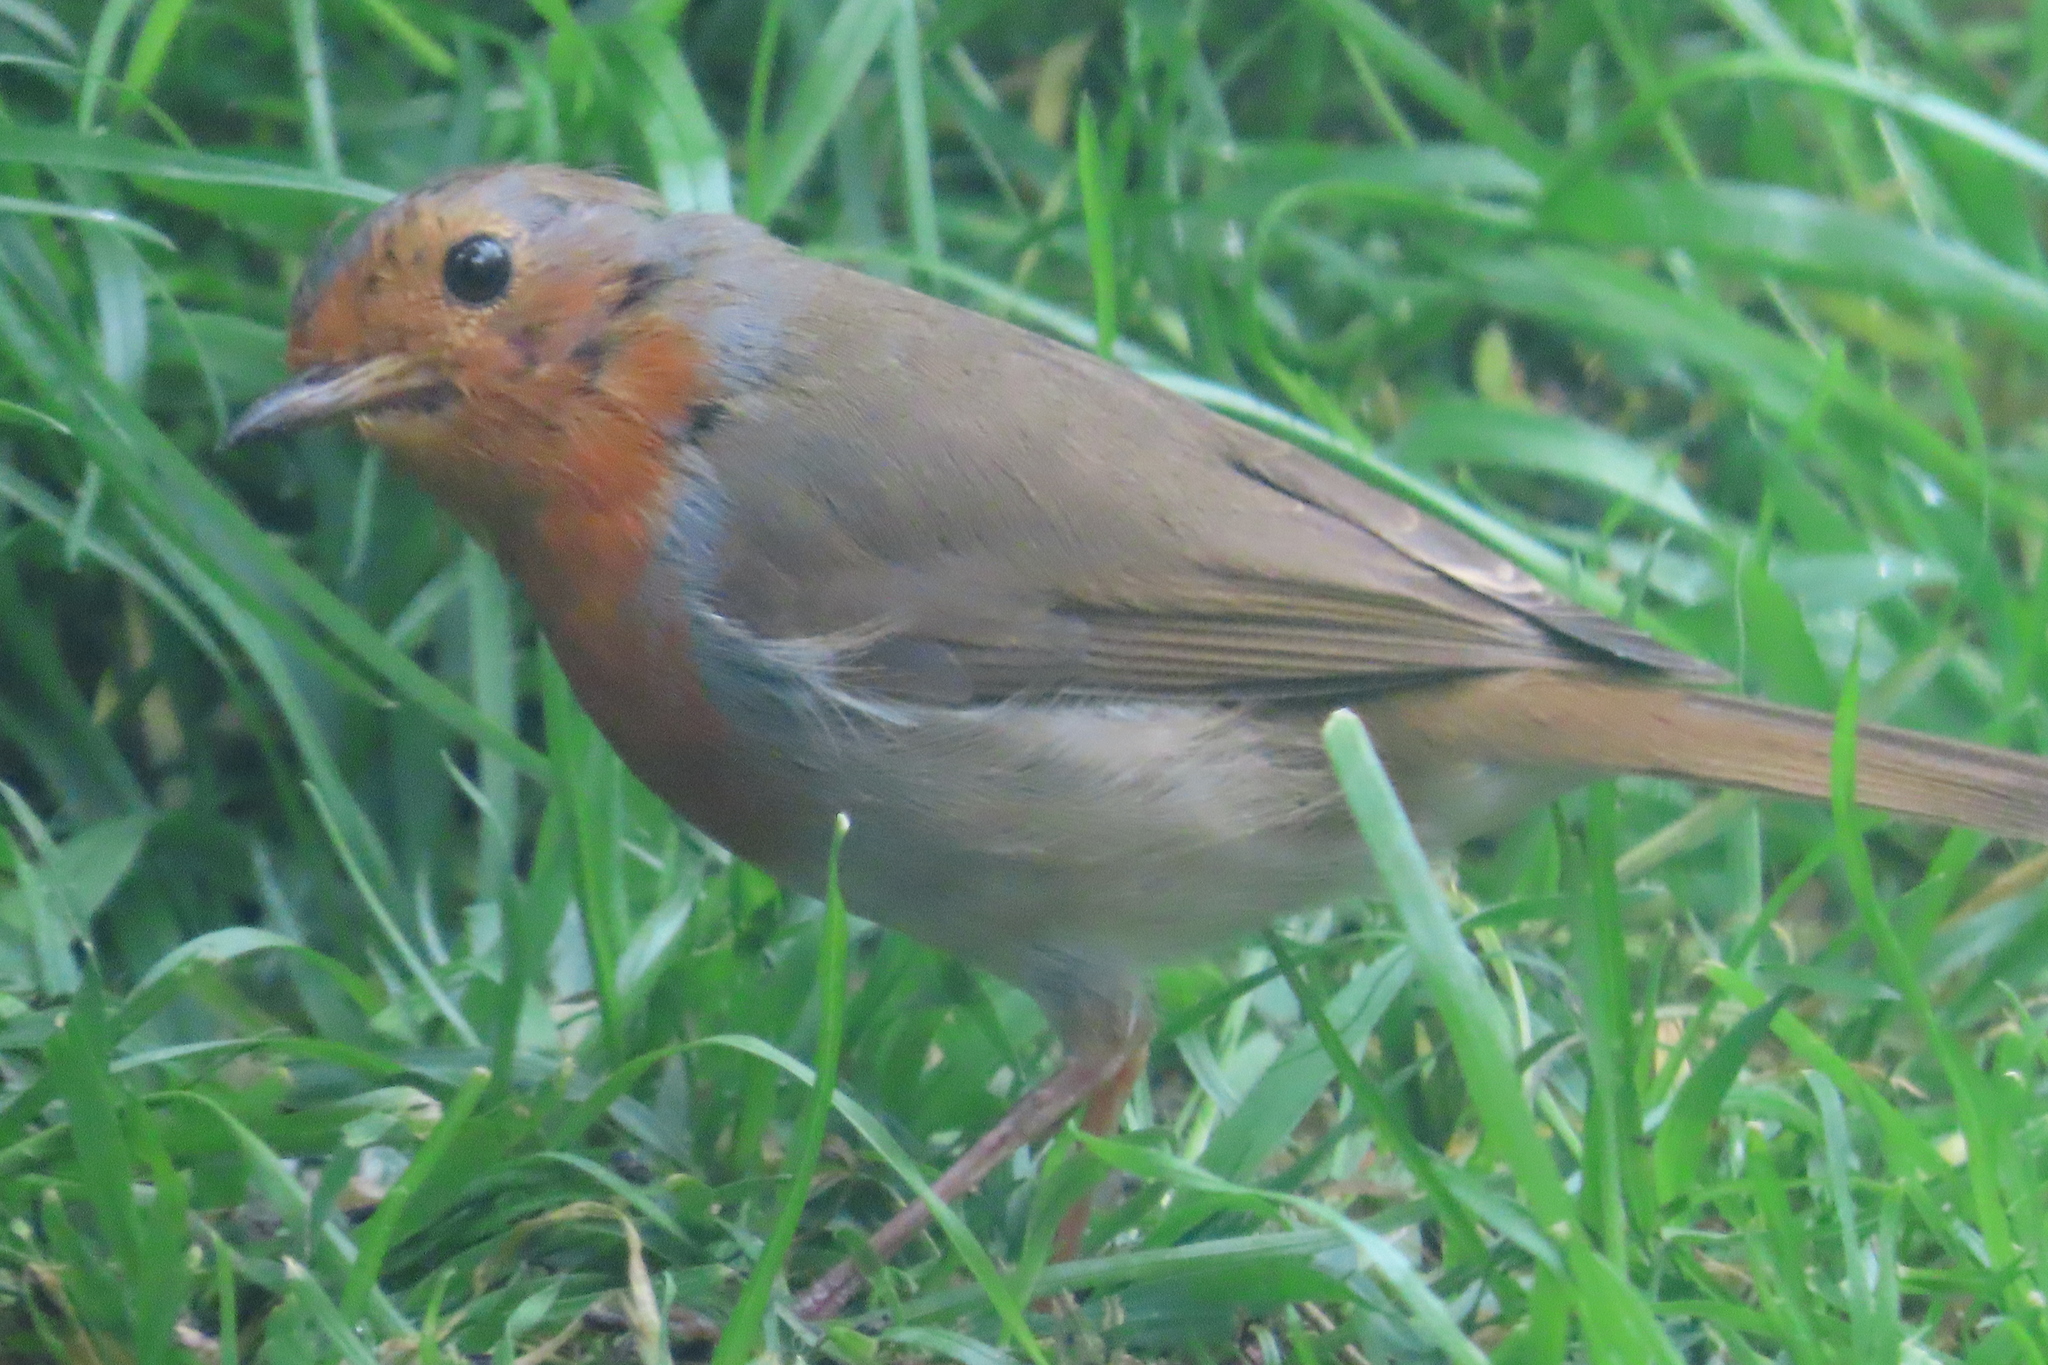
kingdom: Animalia
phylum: Chordata
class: Aves
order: Passeriformes
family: Muscicapidae
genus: Erithacus
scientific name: Erithacus rubecula
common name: European robin
